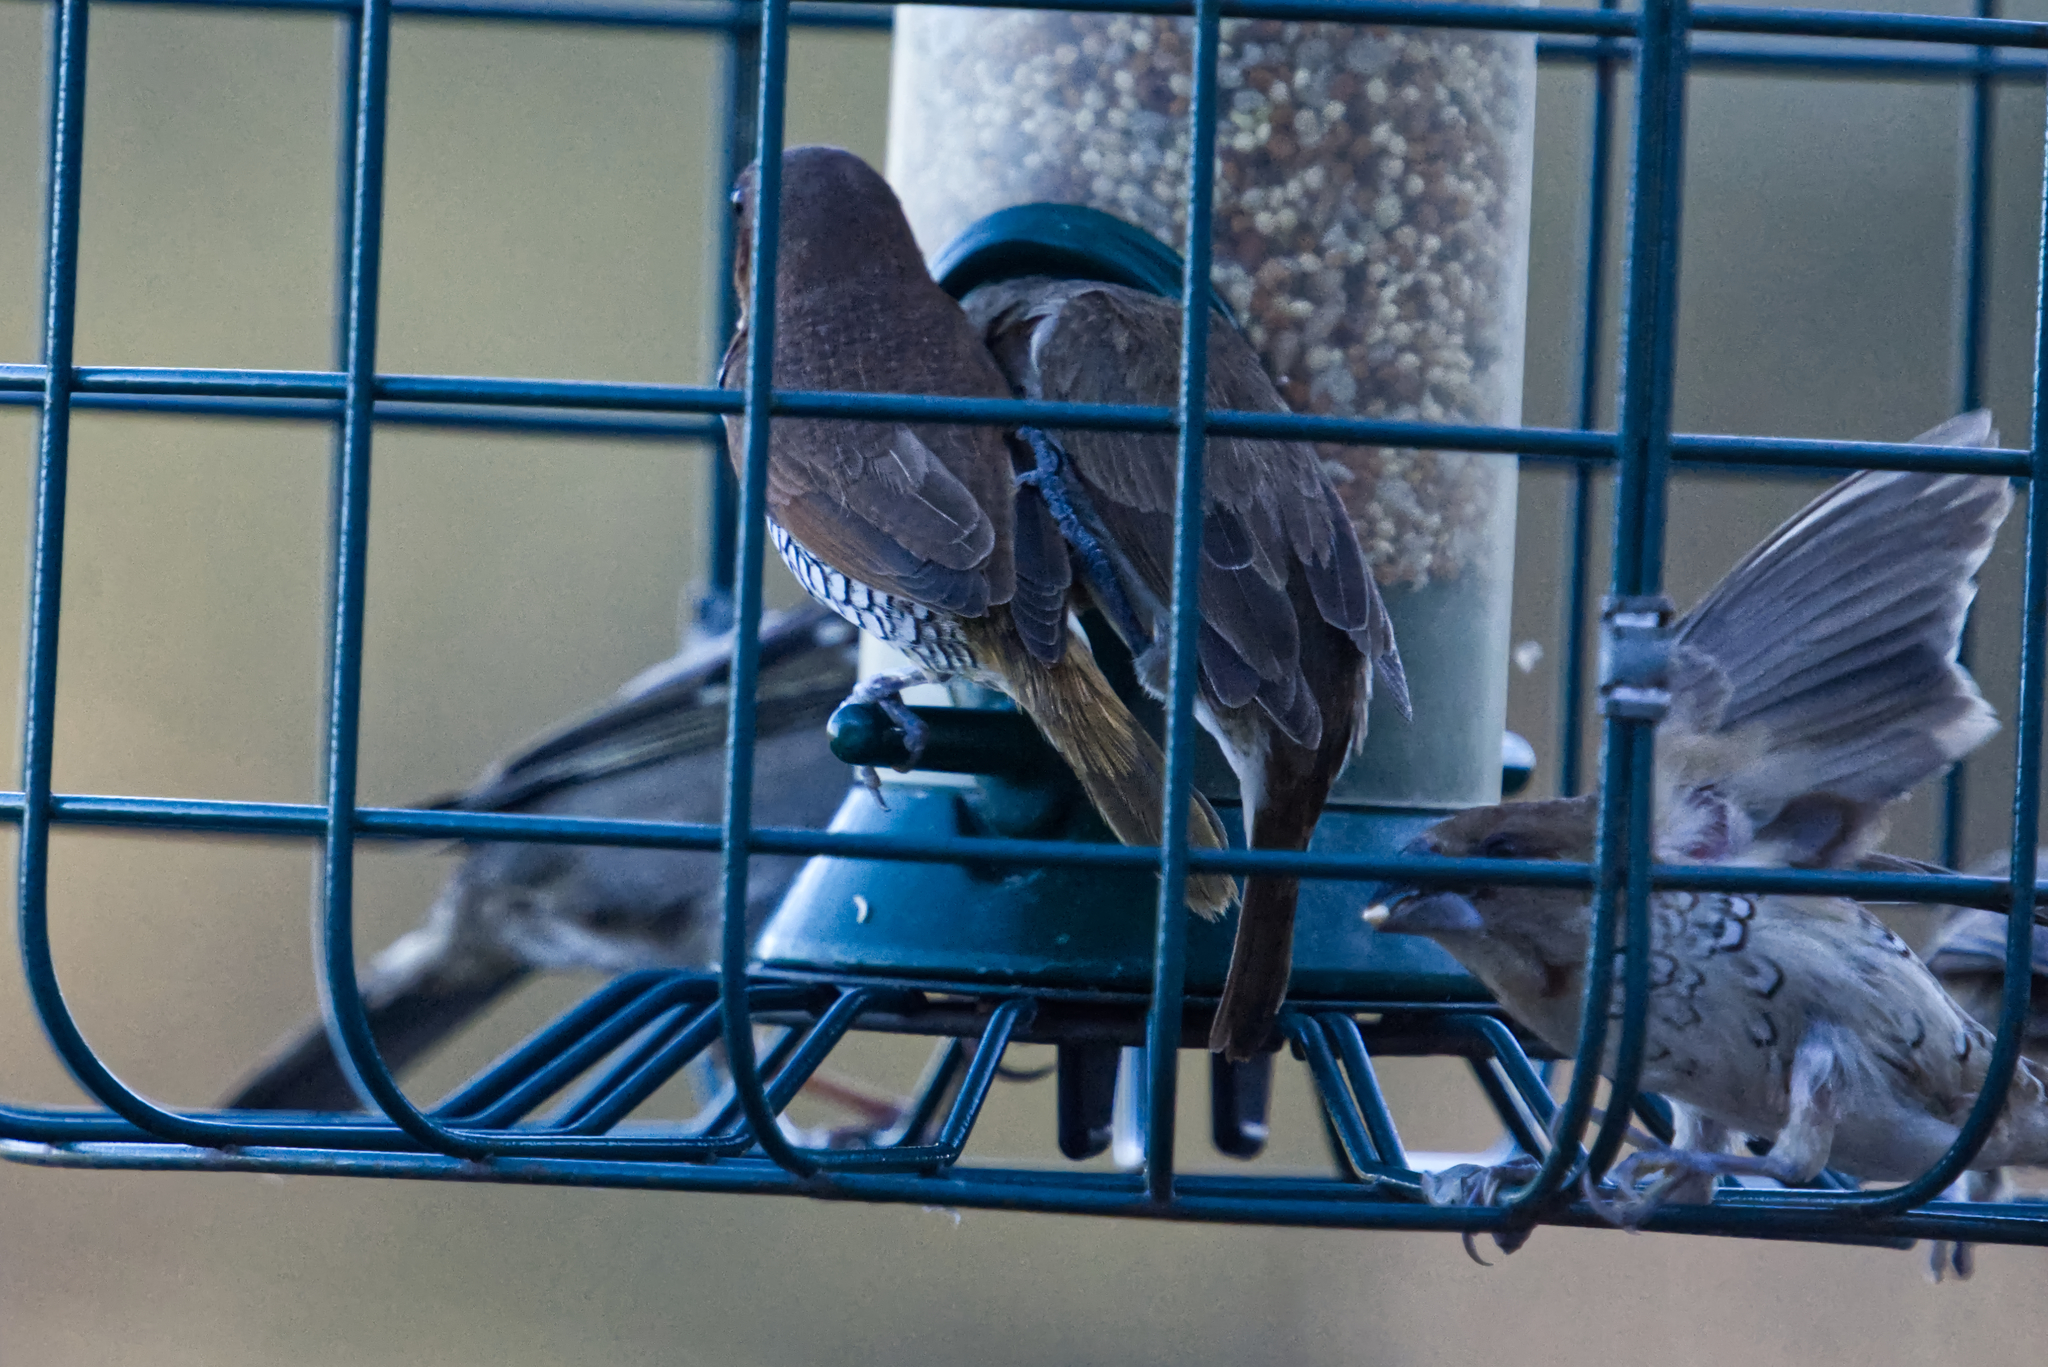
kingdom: Animalia
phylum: Chordata
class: Aves
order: Passeriformes
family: Estrildidae
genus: Lonchura
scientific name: Lonchura punctulata
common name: Scaly-breasted munia
